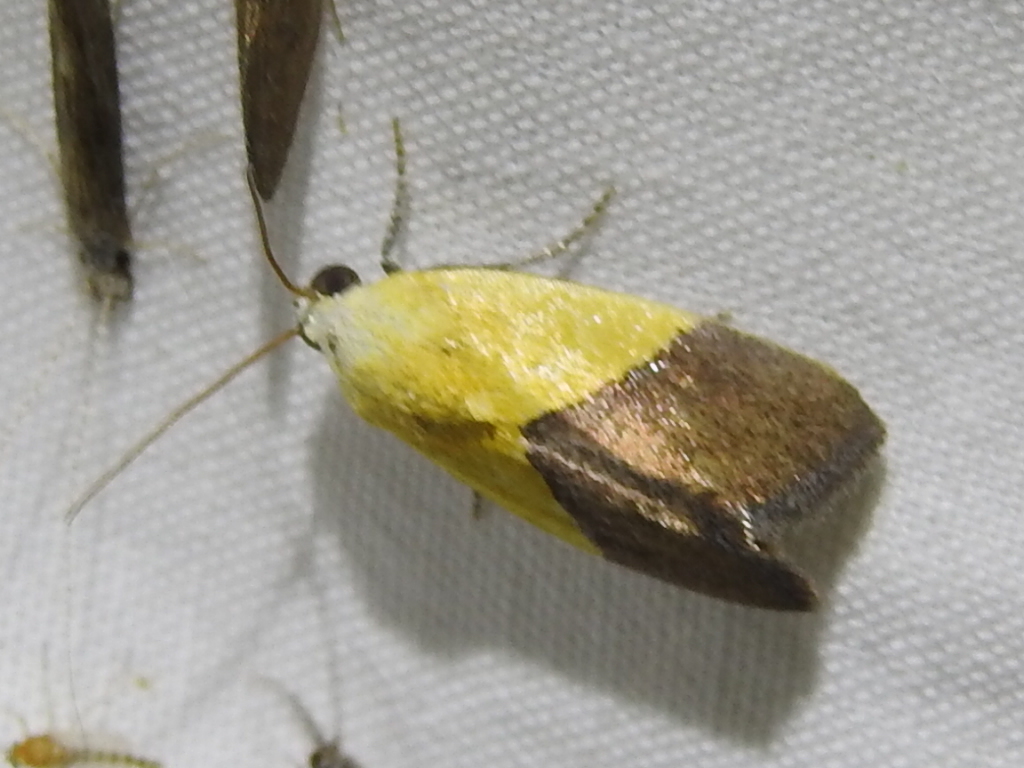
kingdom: Animalia
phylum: Arthropoda
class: Insecta
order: Lepidoptera
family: Noctuidae
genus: Acontia
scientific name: Acontia semiflava
